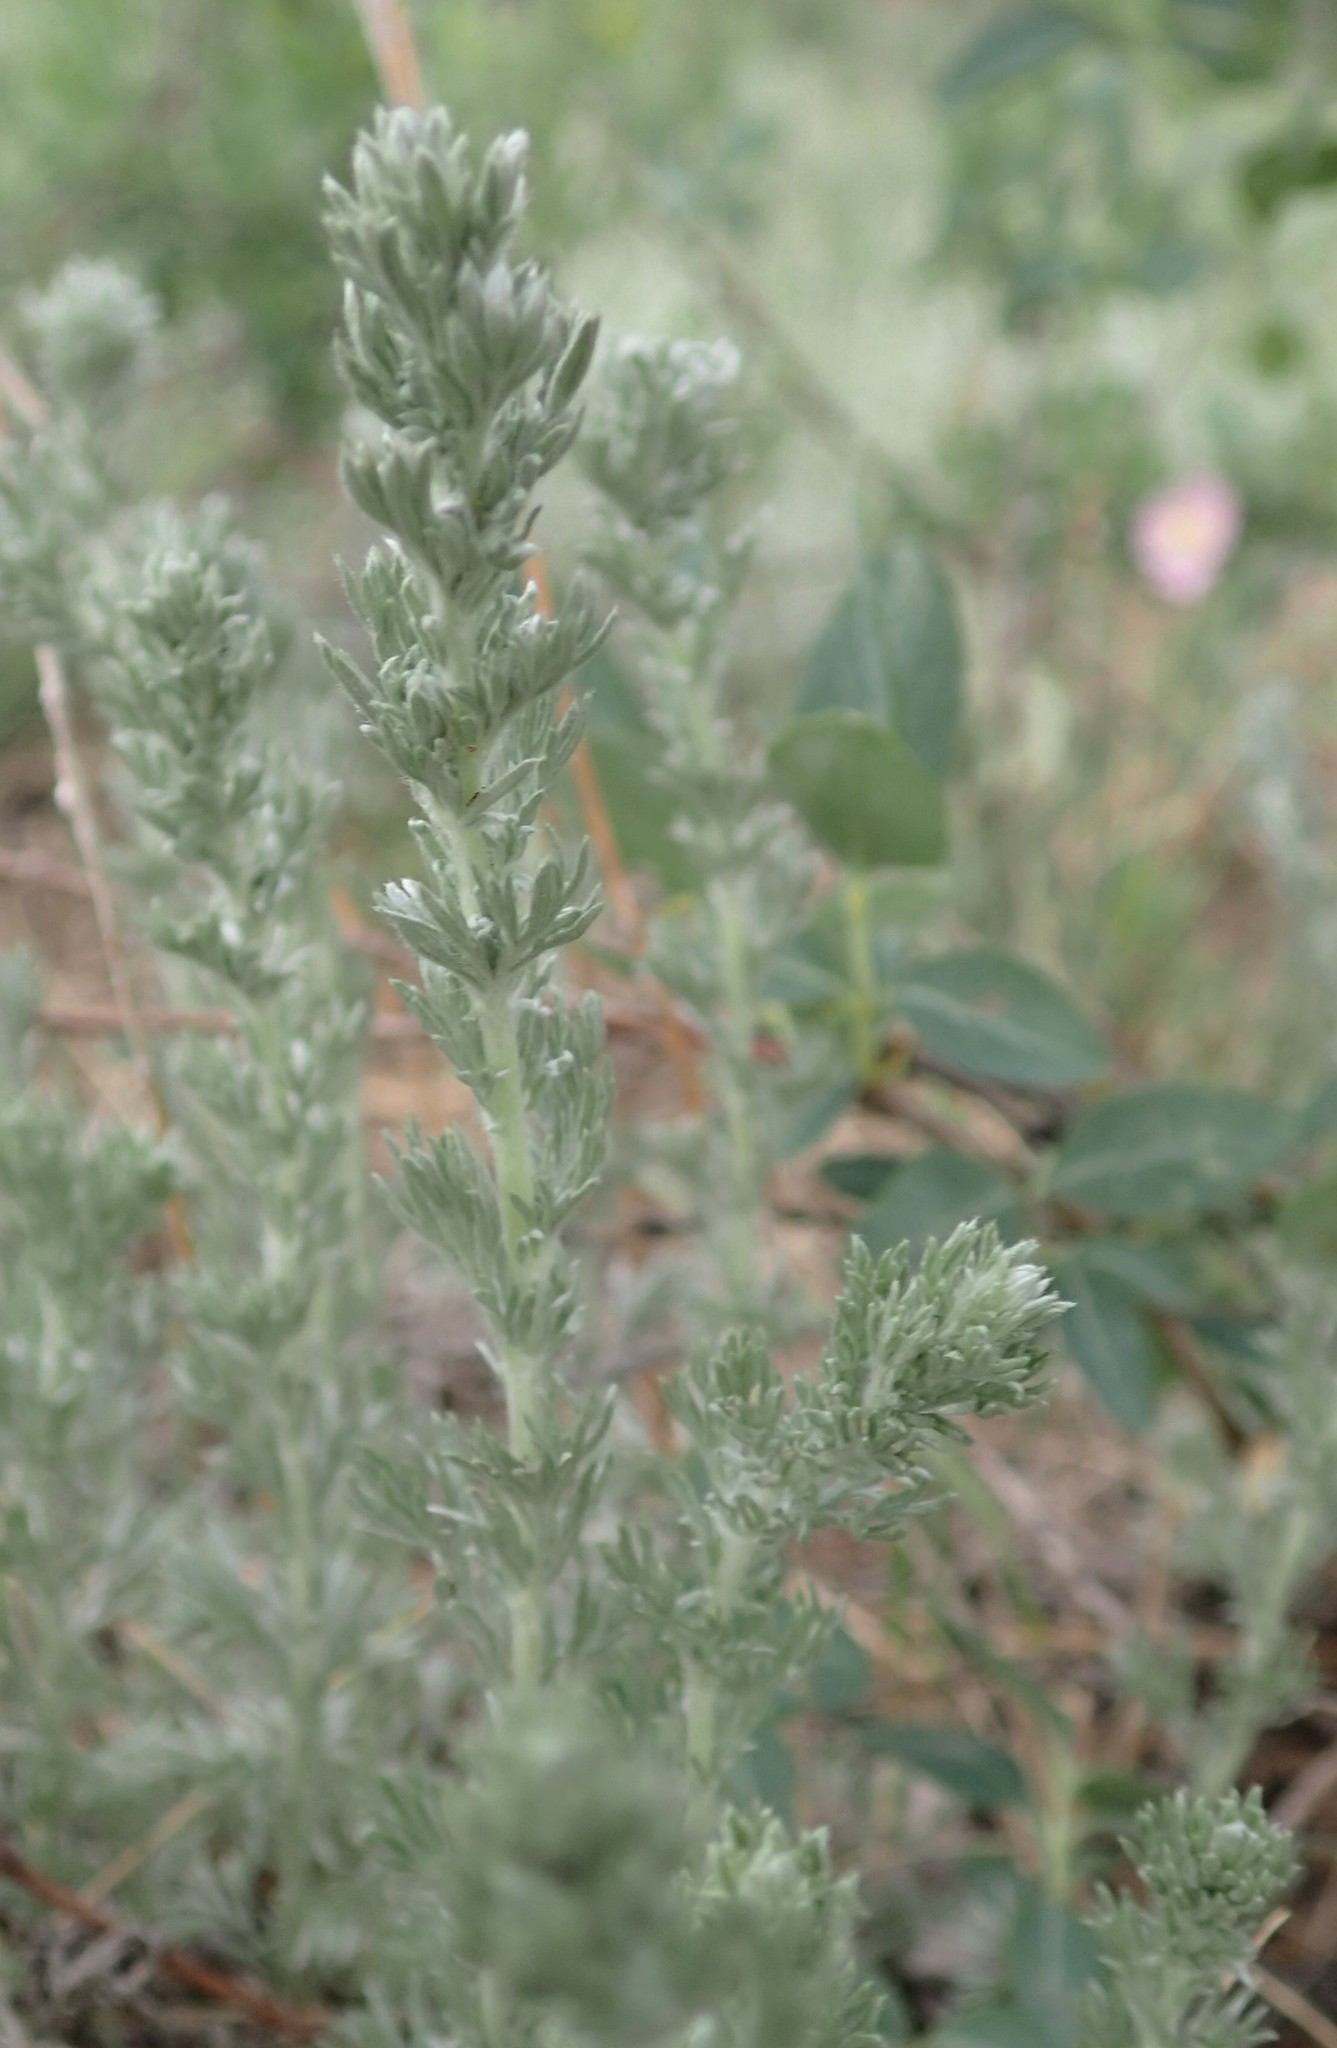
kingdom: Plantae
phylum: Tracheophyta
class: Magnoliopsida
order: Asterales
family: Asteraceae
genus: Artemisia
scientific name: Artemisia frigida
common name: Prairie sagewort
